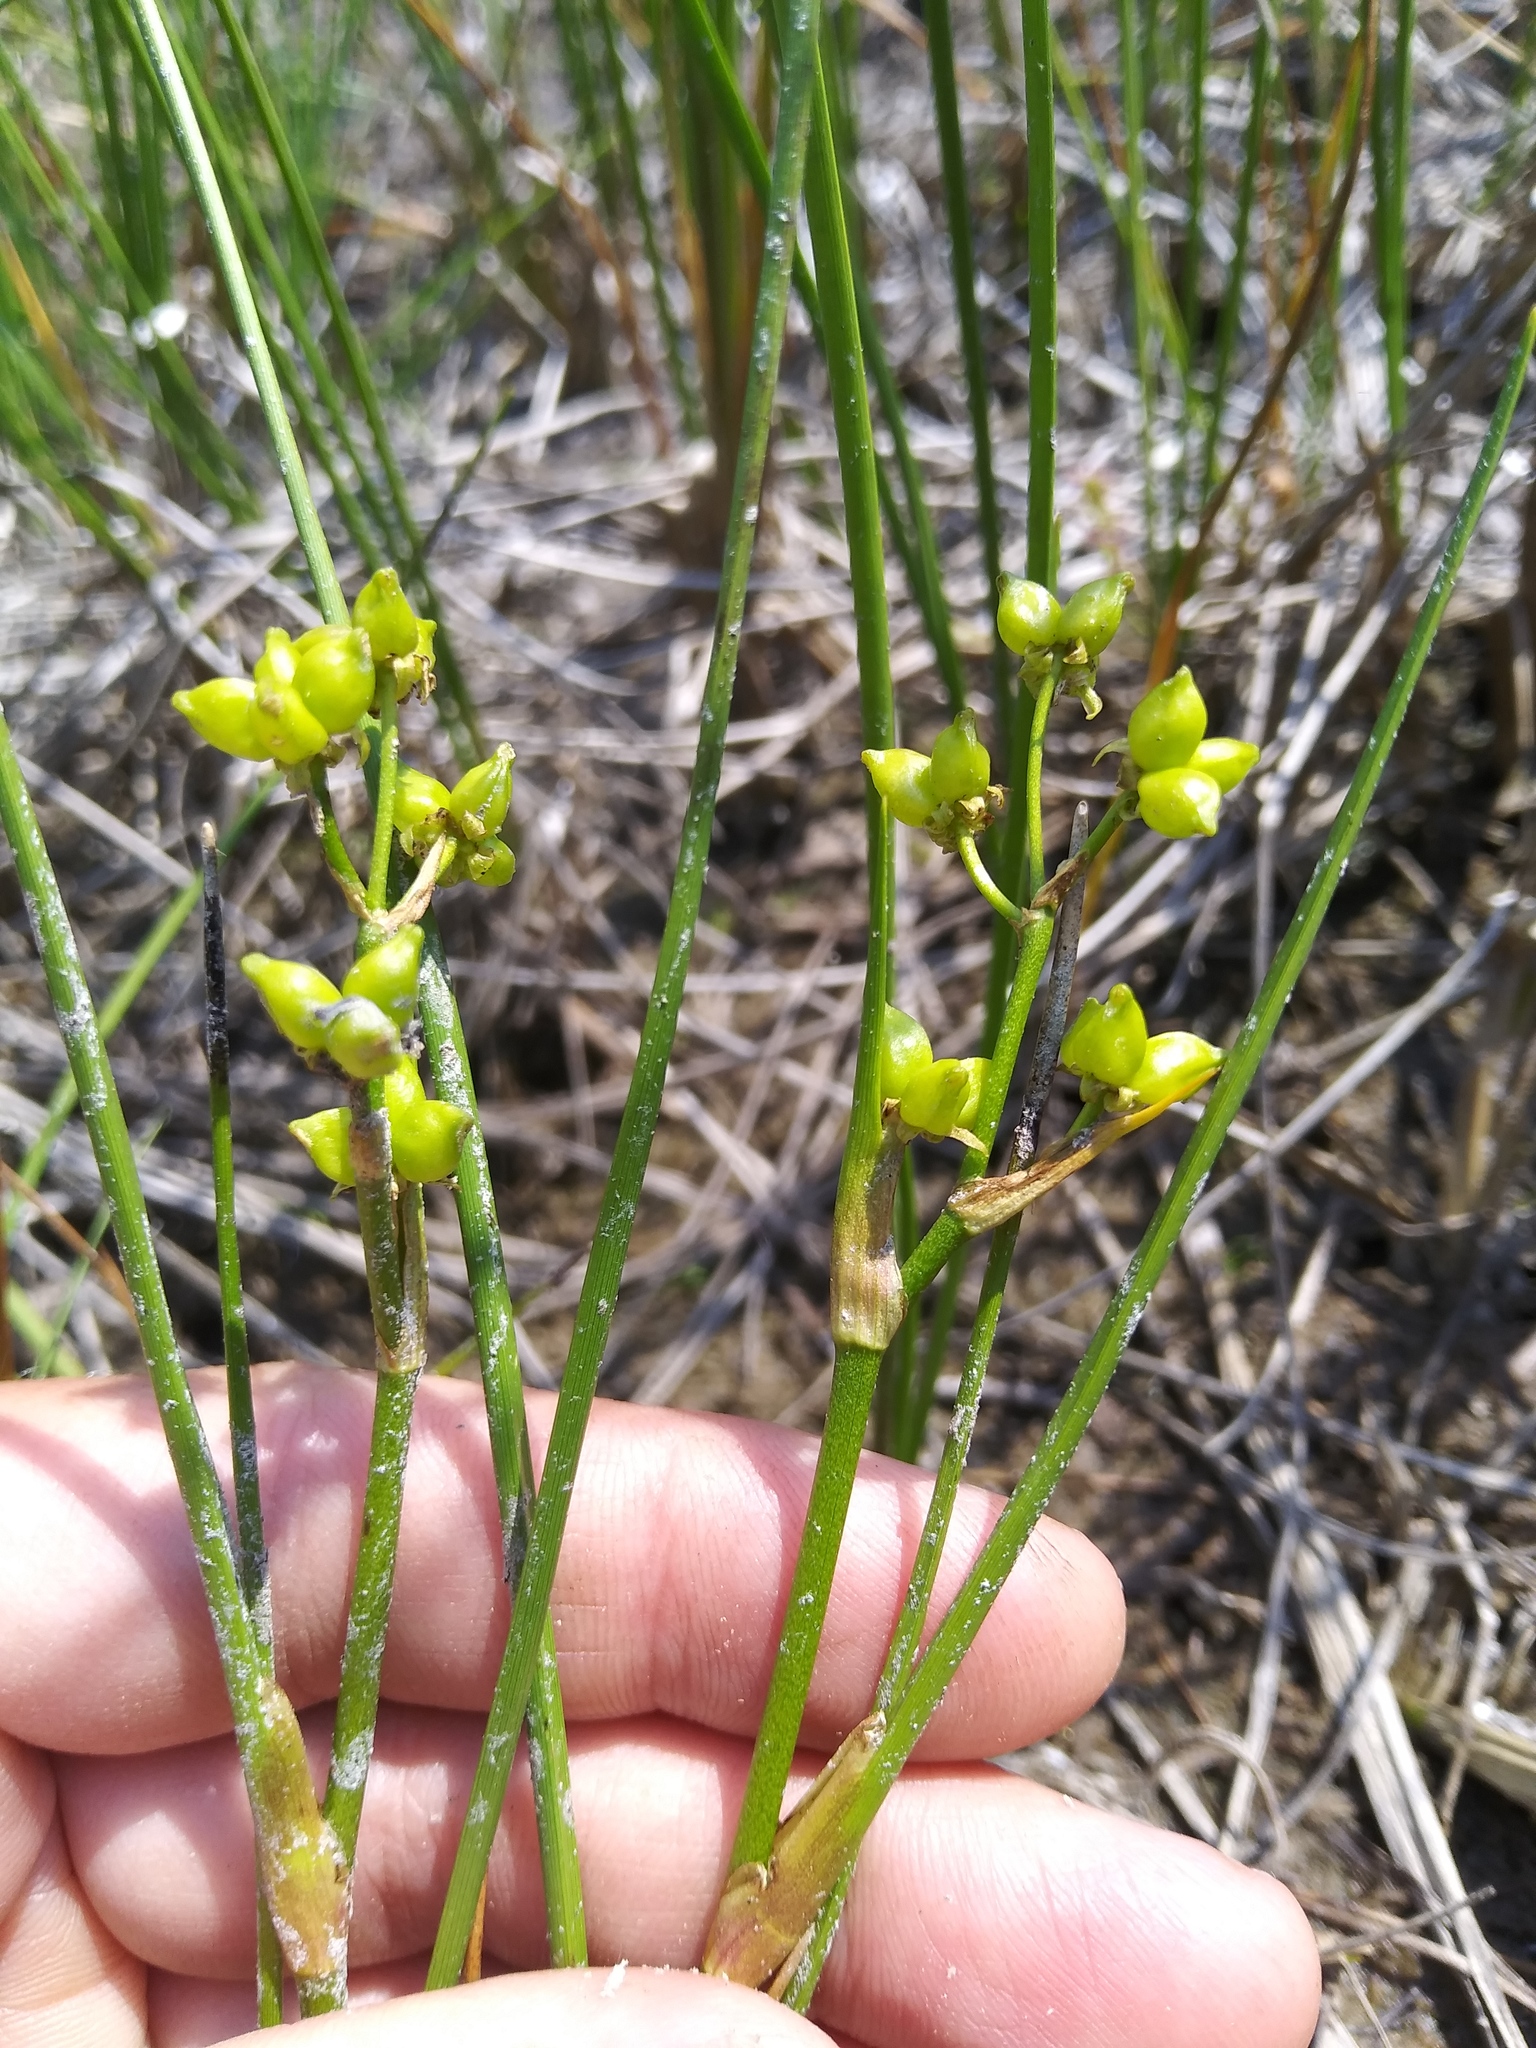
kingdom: Plantae
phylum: Tracheophyta
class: Liliopsida
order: Alismatales
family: Scheuchzeriaceae
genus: Scheuchzeria
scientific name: Scheuchzeria palustris
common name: Rannoch-rush
